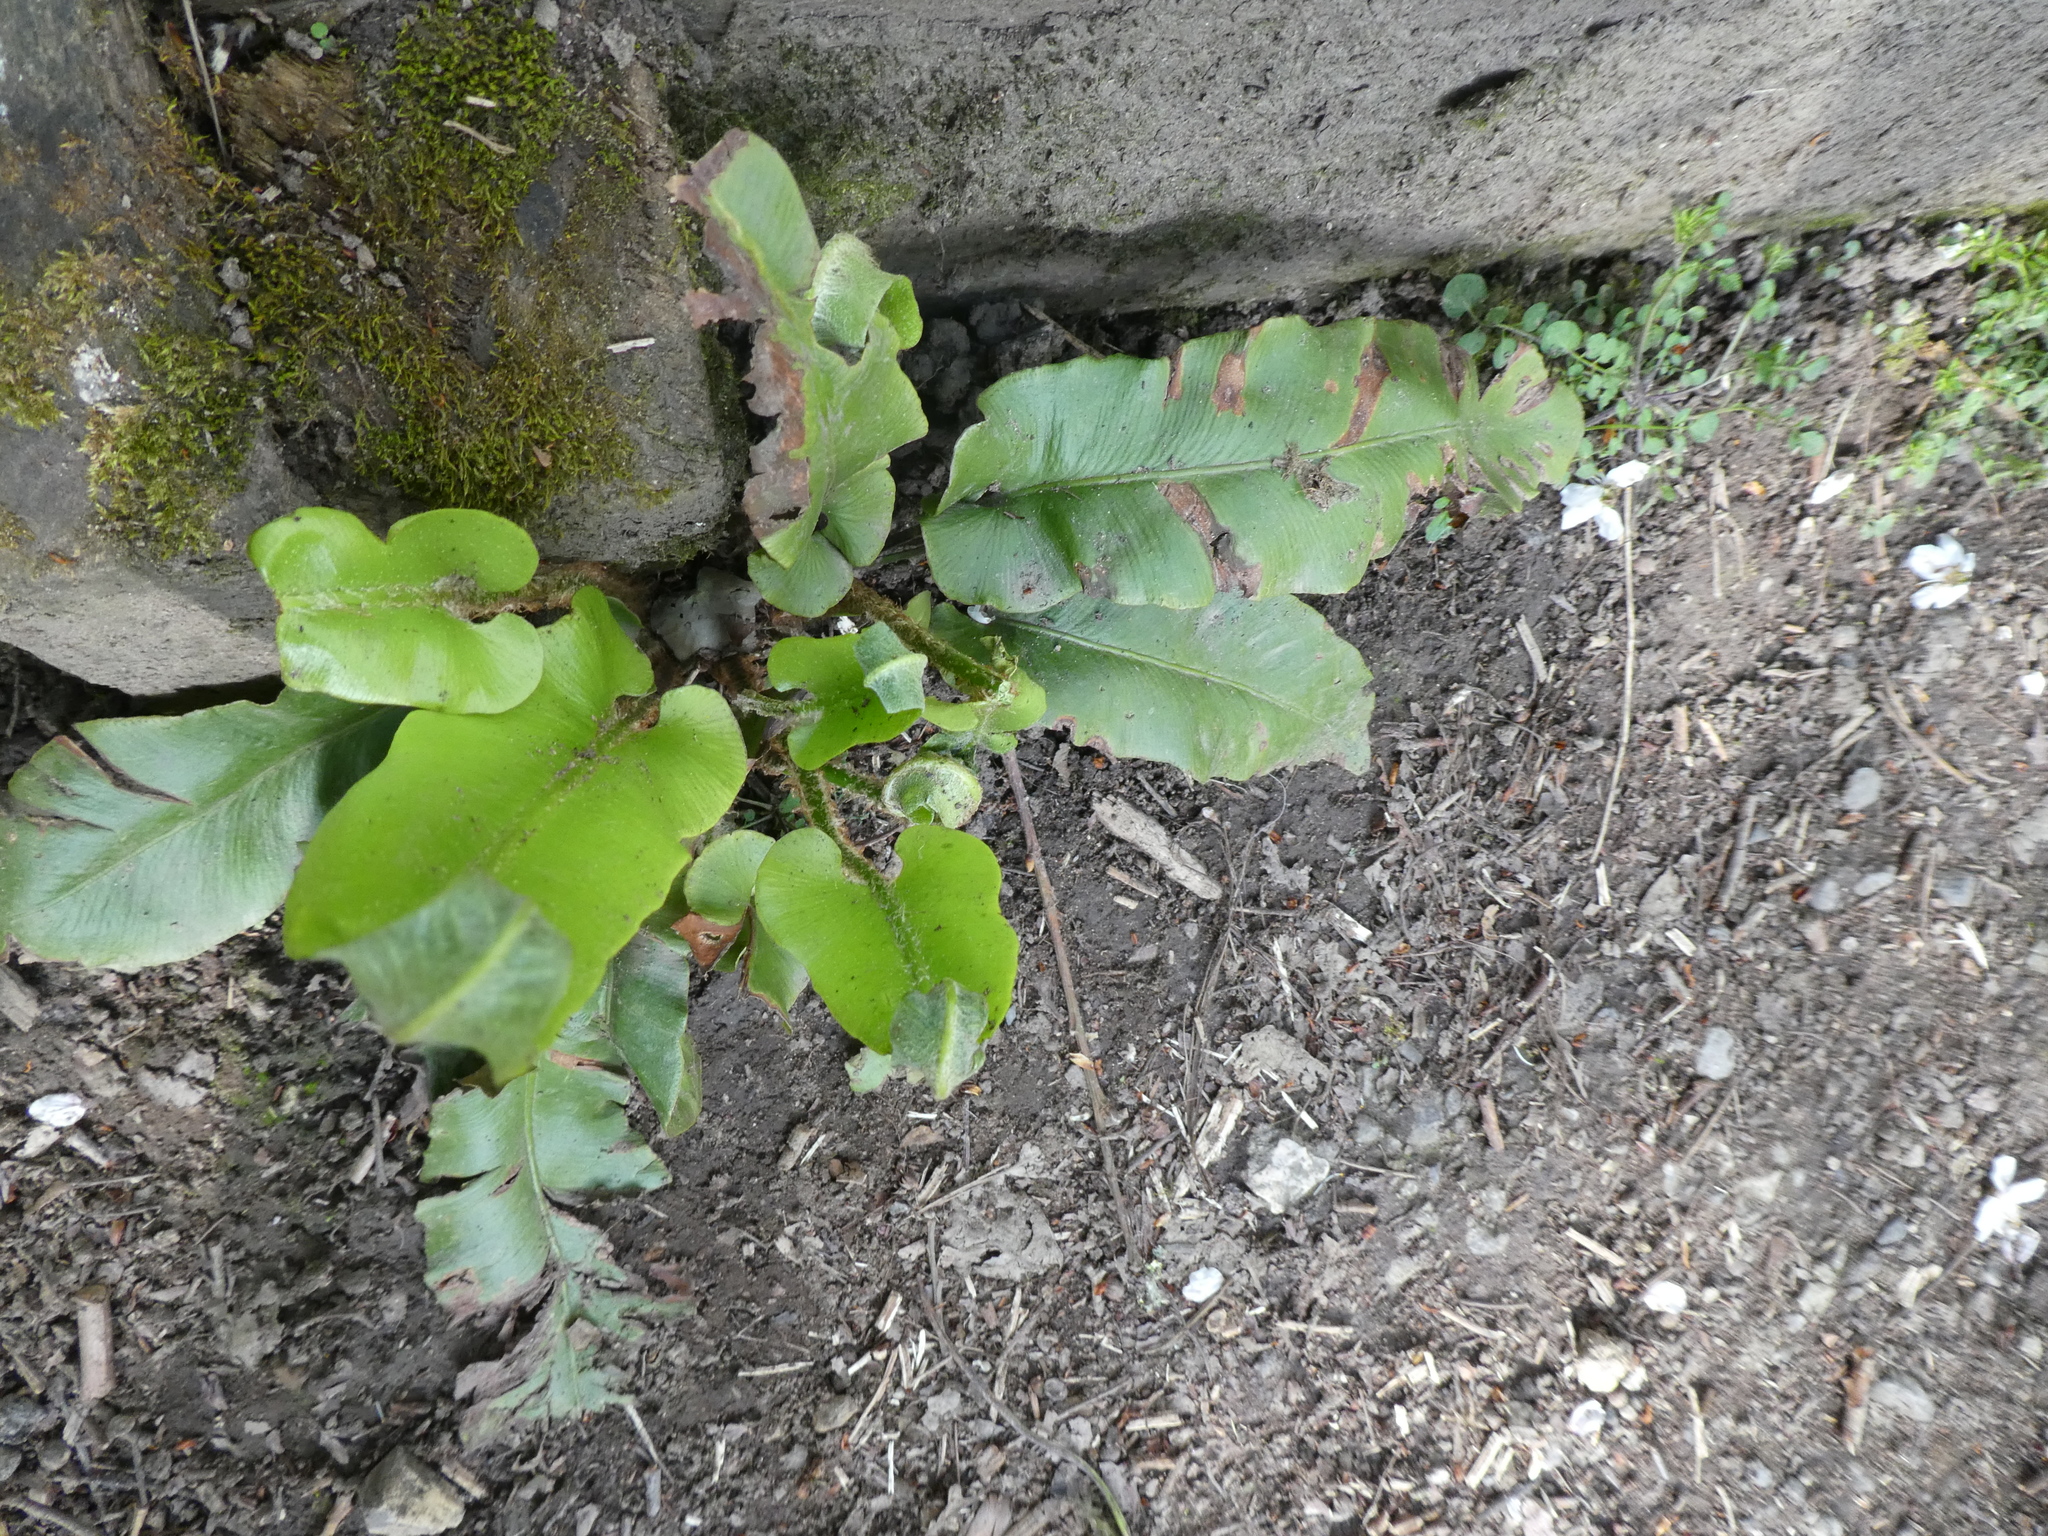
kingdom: Plantae
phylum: Tracheophyta
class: Polypodiopsida
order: Polypodiales
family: Aspleniaceae
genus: Asplenium
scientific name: Asplenium scolopendrium
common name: Hart's-tongue fern
